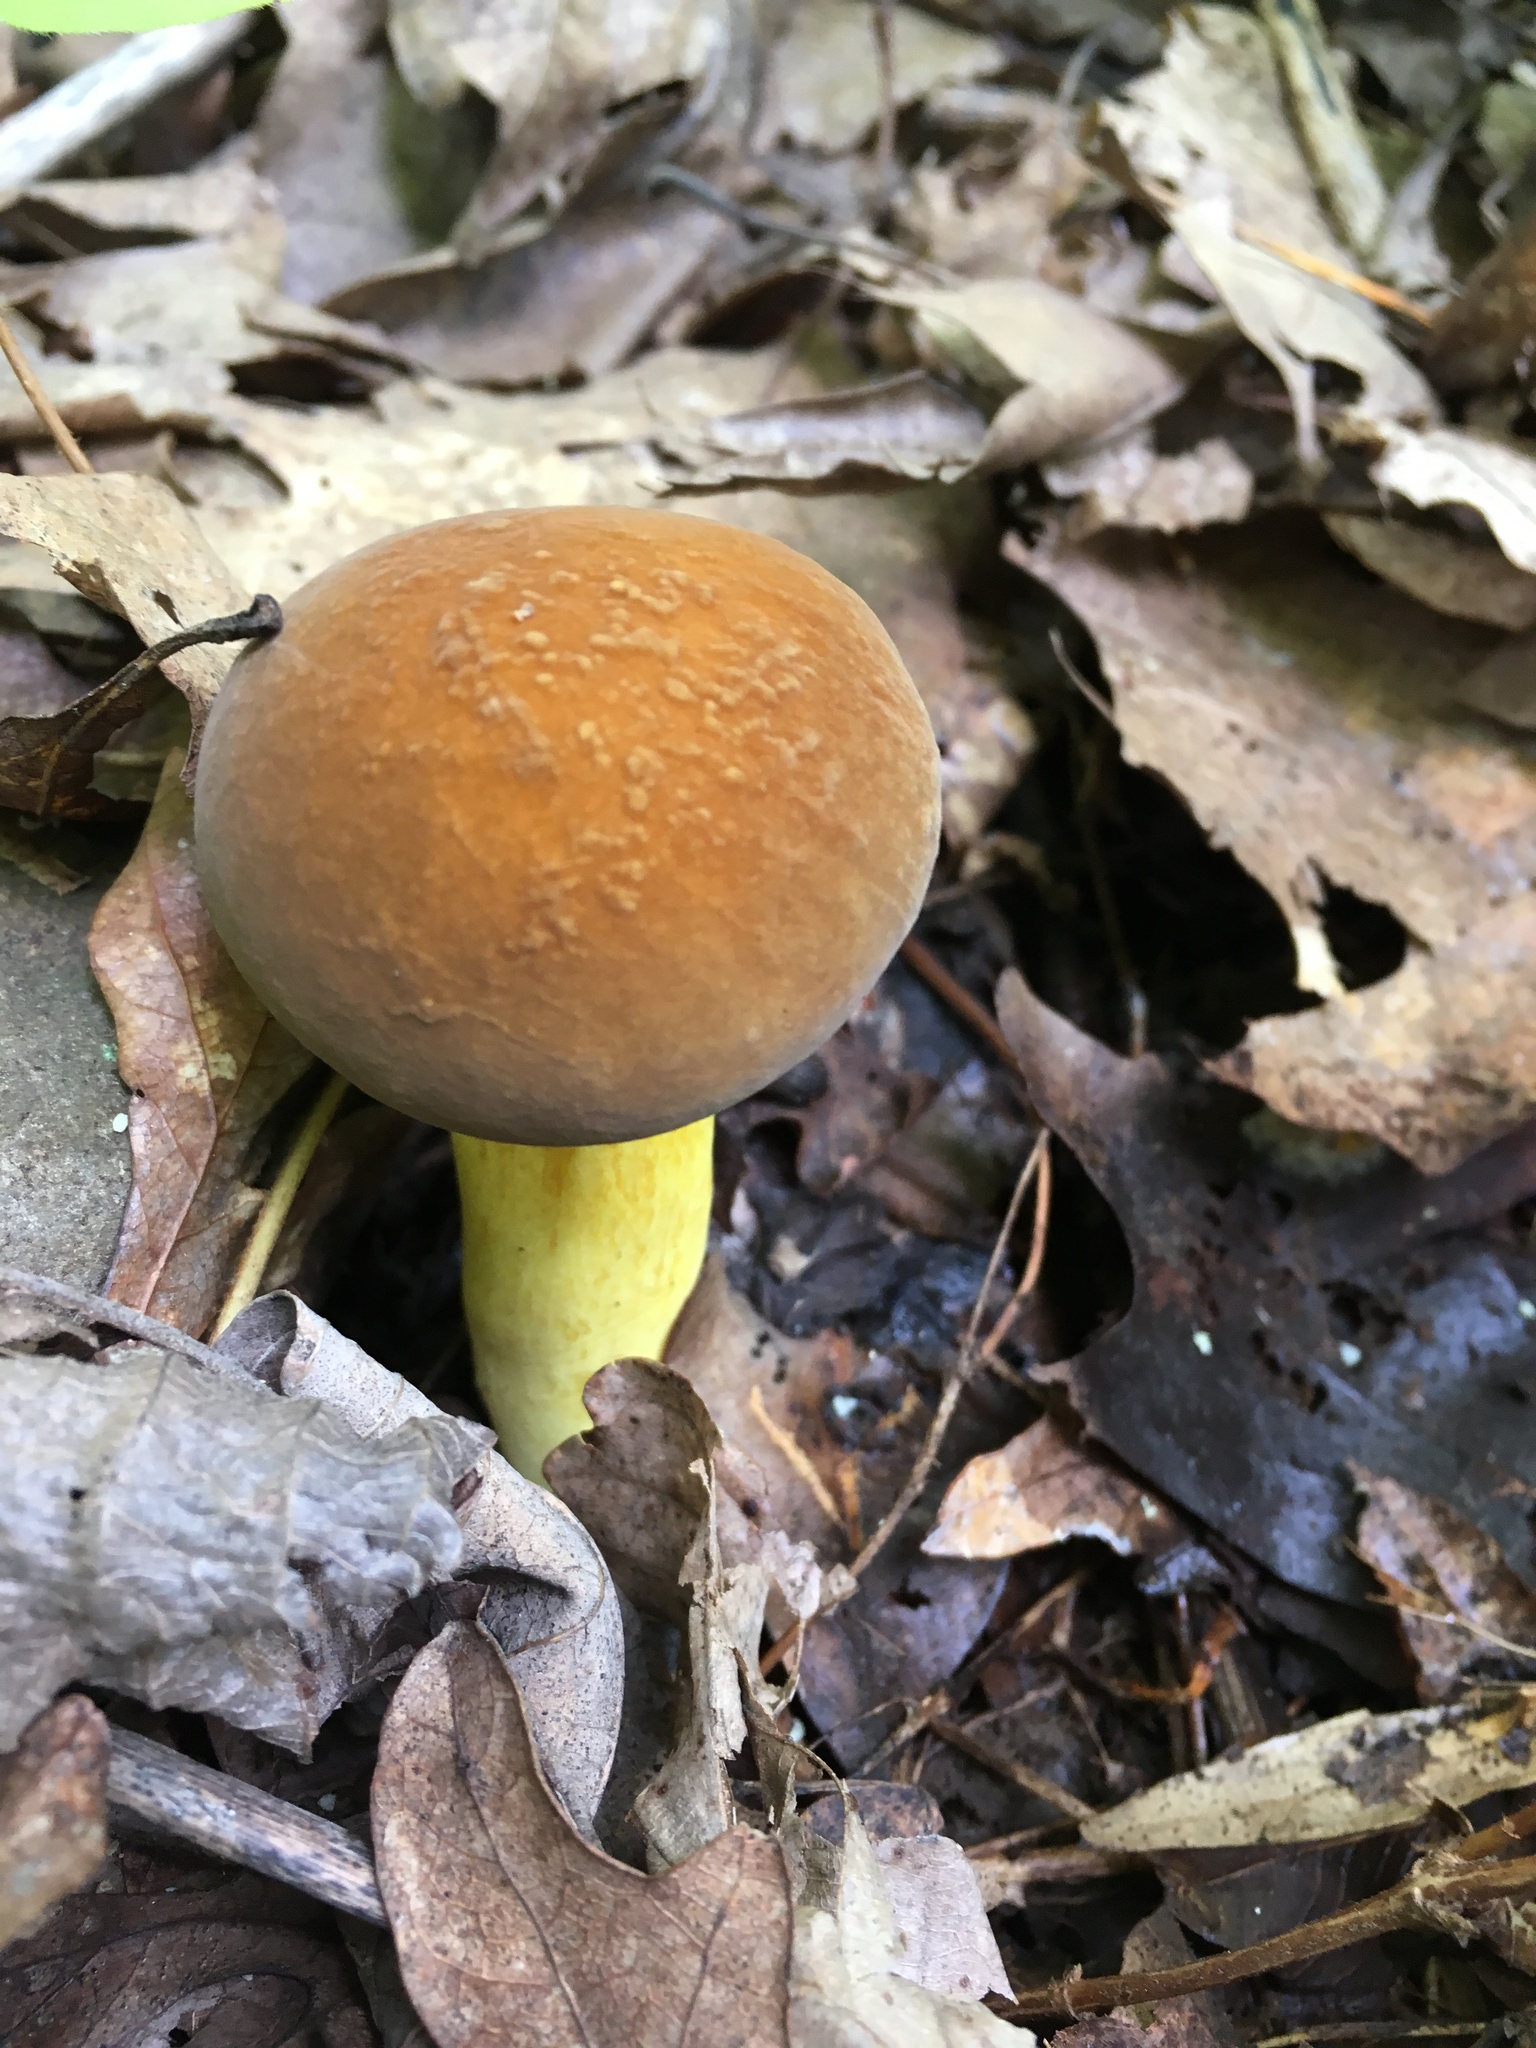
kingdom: Fungi
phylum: Basidiomycota
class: Agaricomycetes
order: Boletales
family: Boletaceae
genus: Boletus
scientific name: Boletus auripes
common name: Butter-foot bolete
